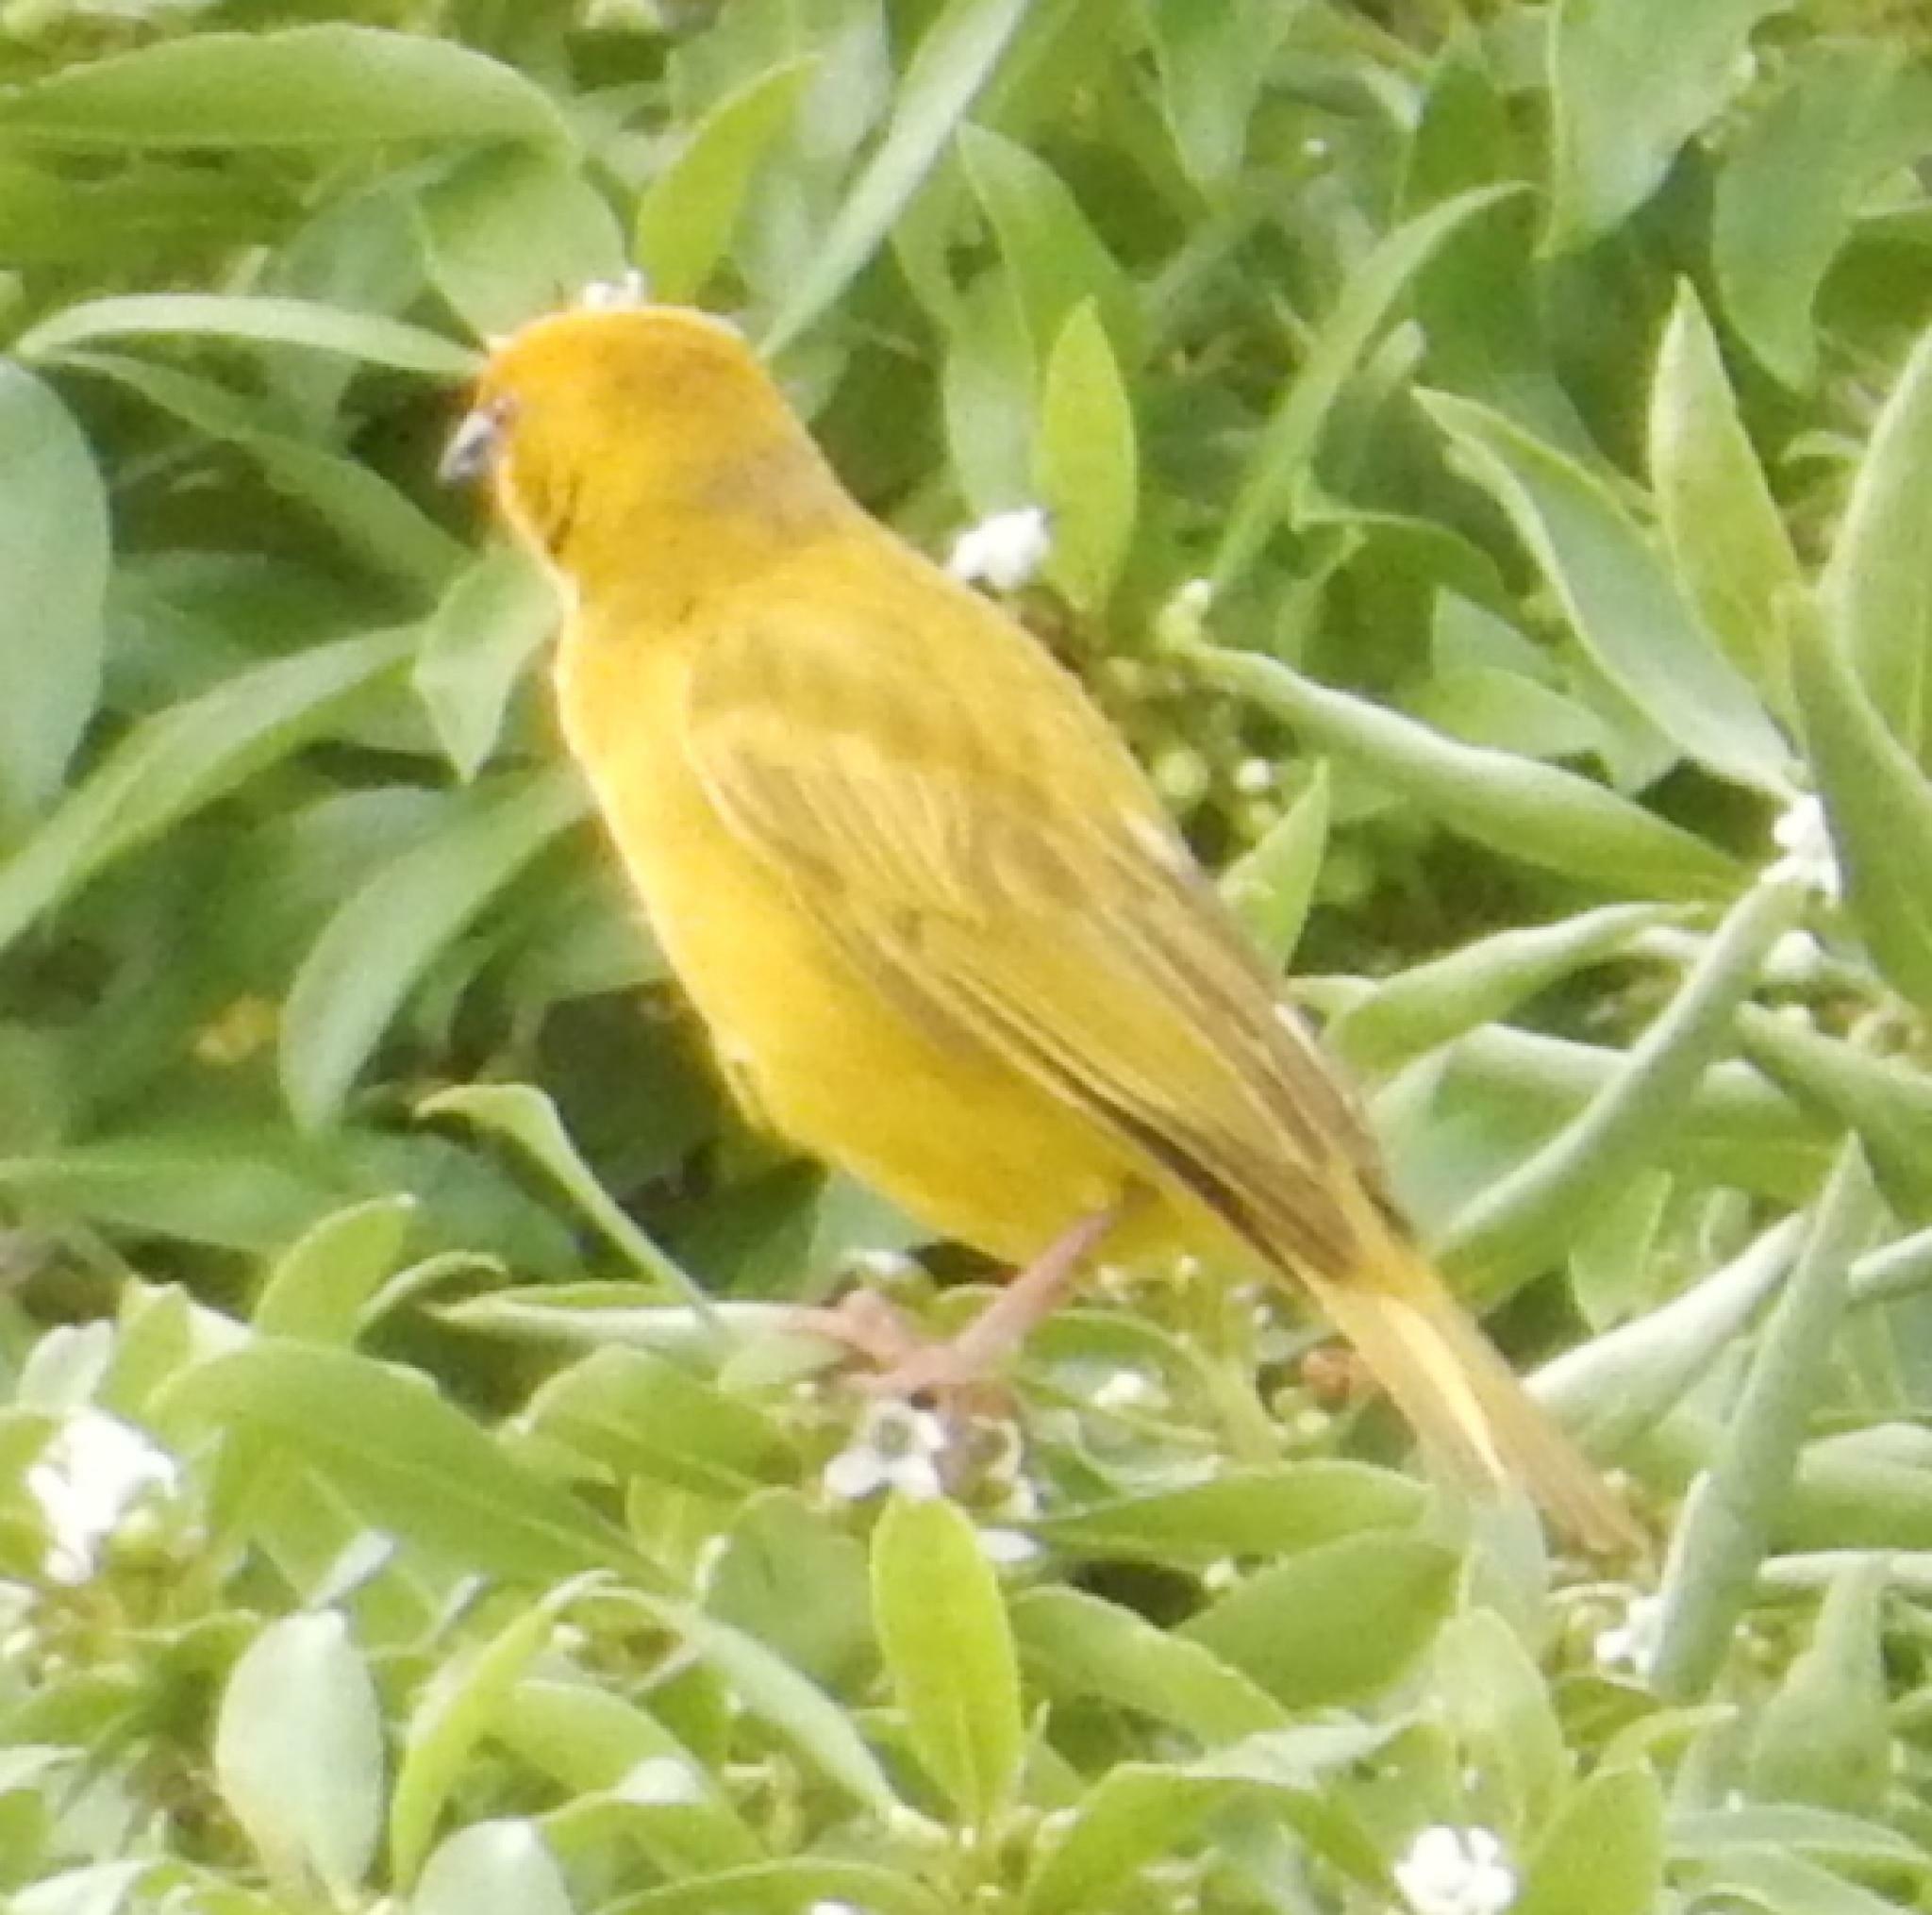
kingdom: Animalia
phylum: Chordata
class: Aves
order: Passeriformes
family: Ploceidae
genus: Ploceus
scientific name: Ploceus subaureus
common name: Yellow weaver
